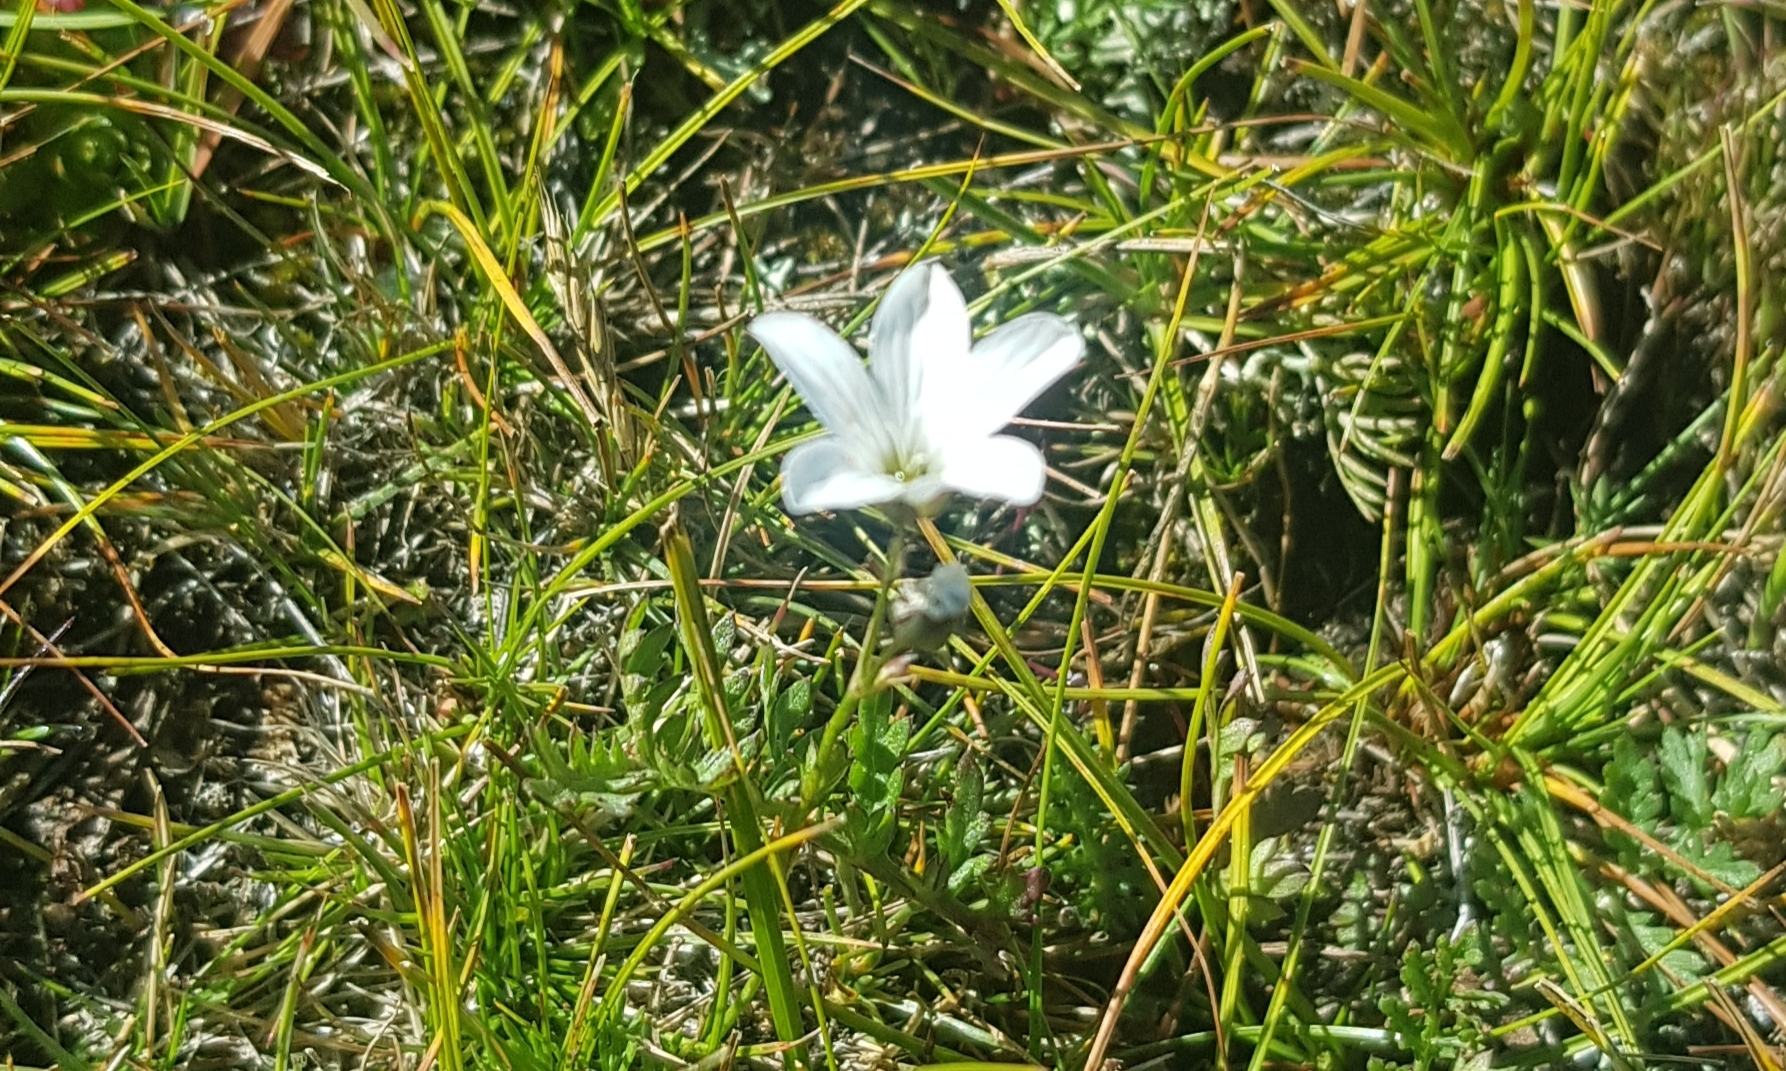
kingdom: Plantae
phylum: Tracheophyta
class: Magnoliopsida
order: Caryophyllales
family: Caryophyllaceae
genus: Eremogone
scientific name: Eremogone meyeri
